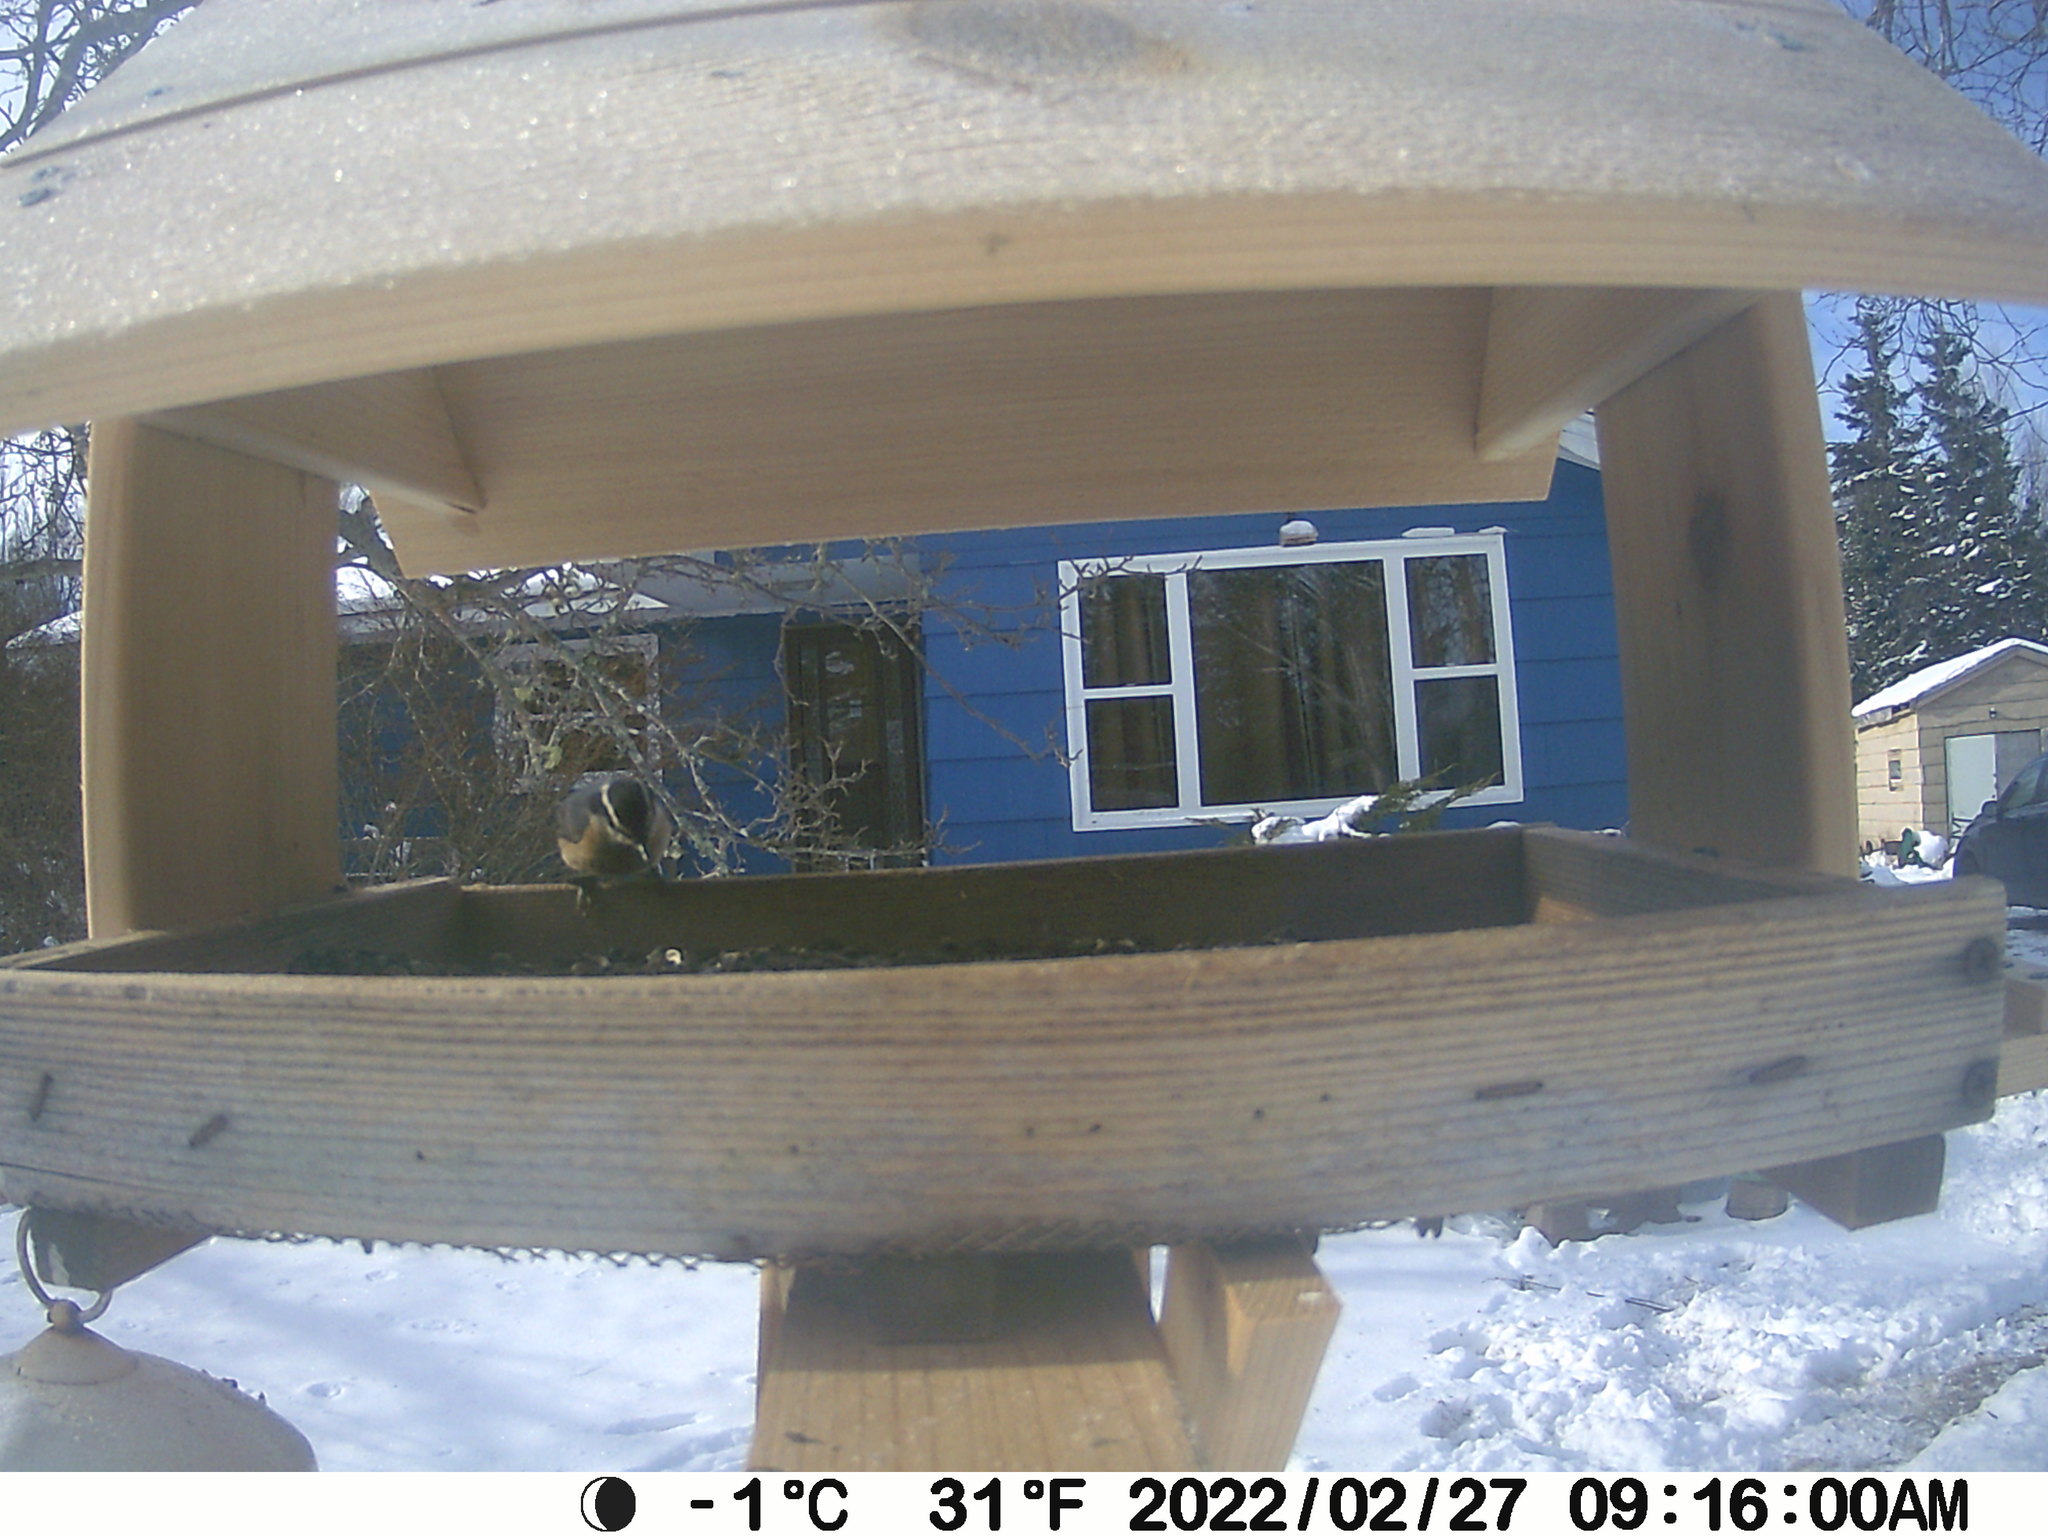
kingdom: Animalia
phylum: Chordata
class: Aves
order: Passeriformes
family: Sittidae
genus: Sitta
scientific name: Sitta canadensis
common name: Red-breasted nuthatch
